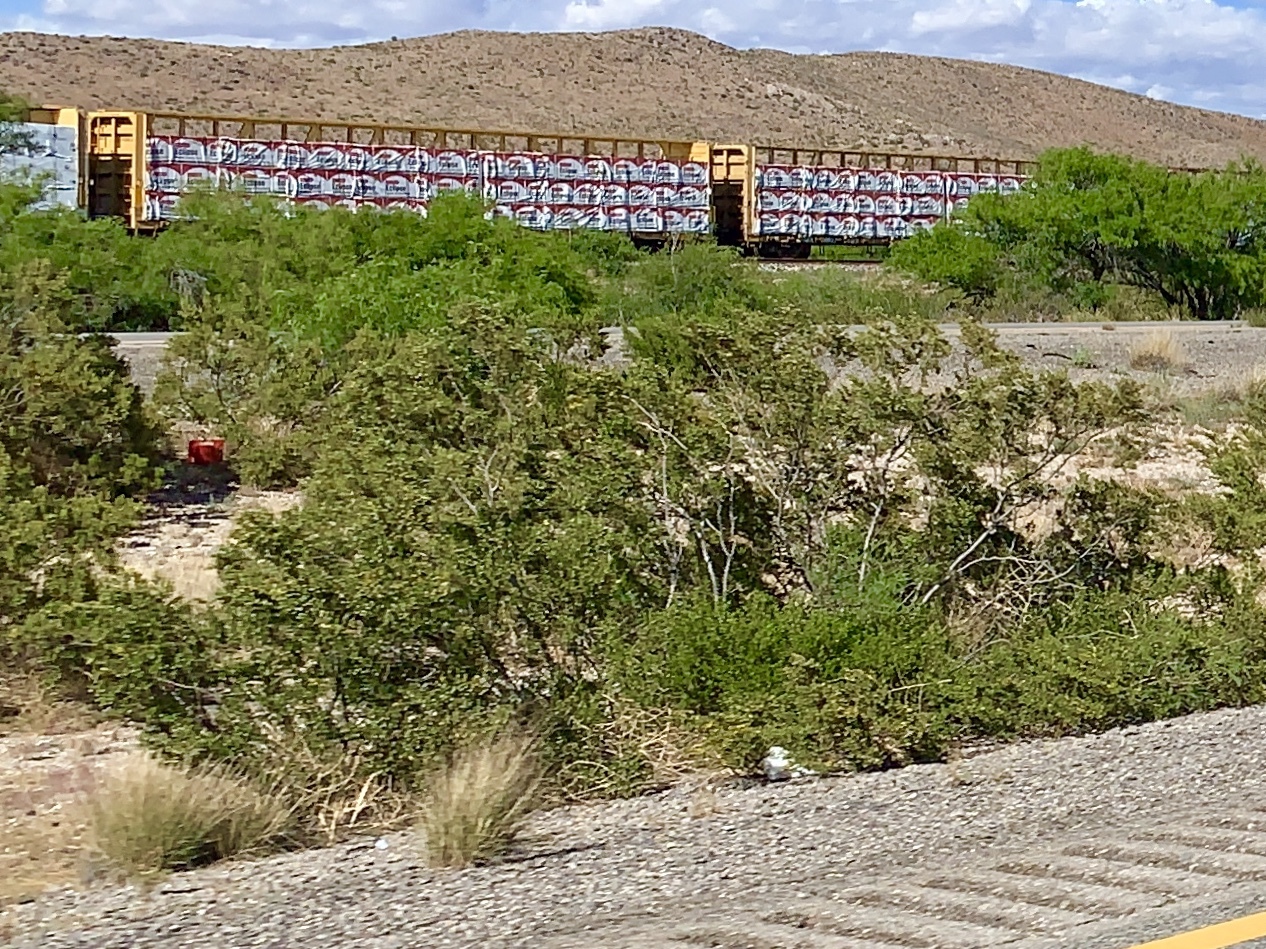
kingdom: Plantae
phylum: Tracheophyta
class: Magnoliopsida
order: Zygophyllales
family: Zygophyllaceae
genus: Larrea
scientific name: Larrea tridentata
